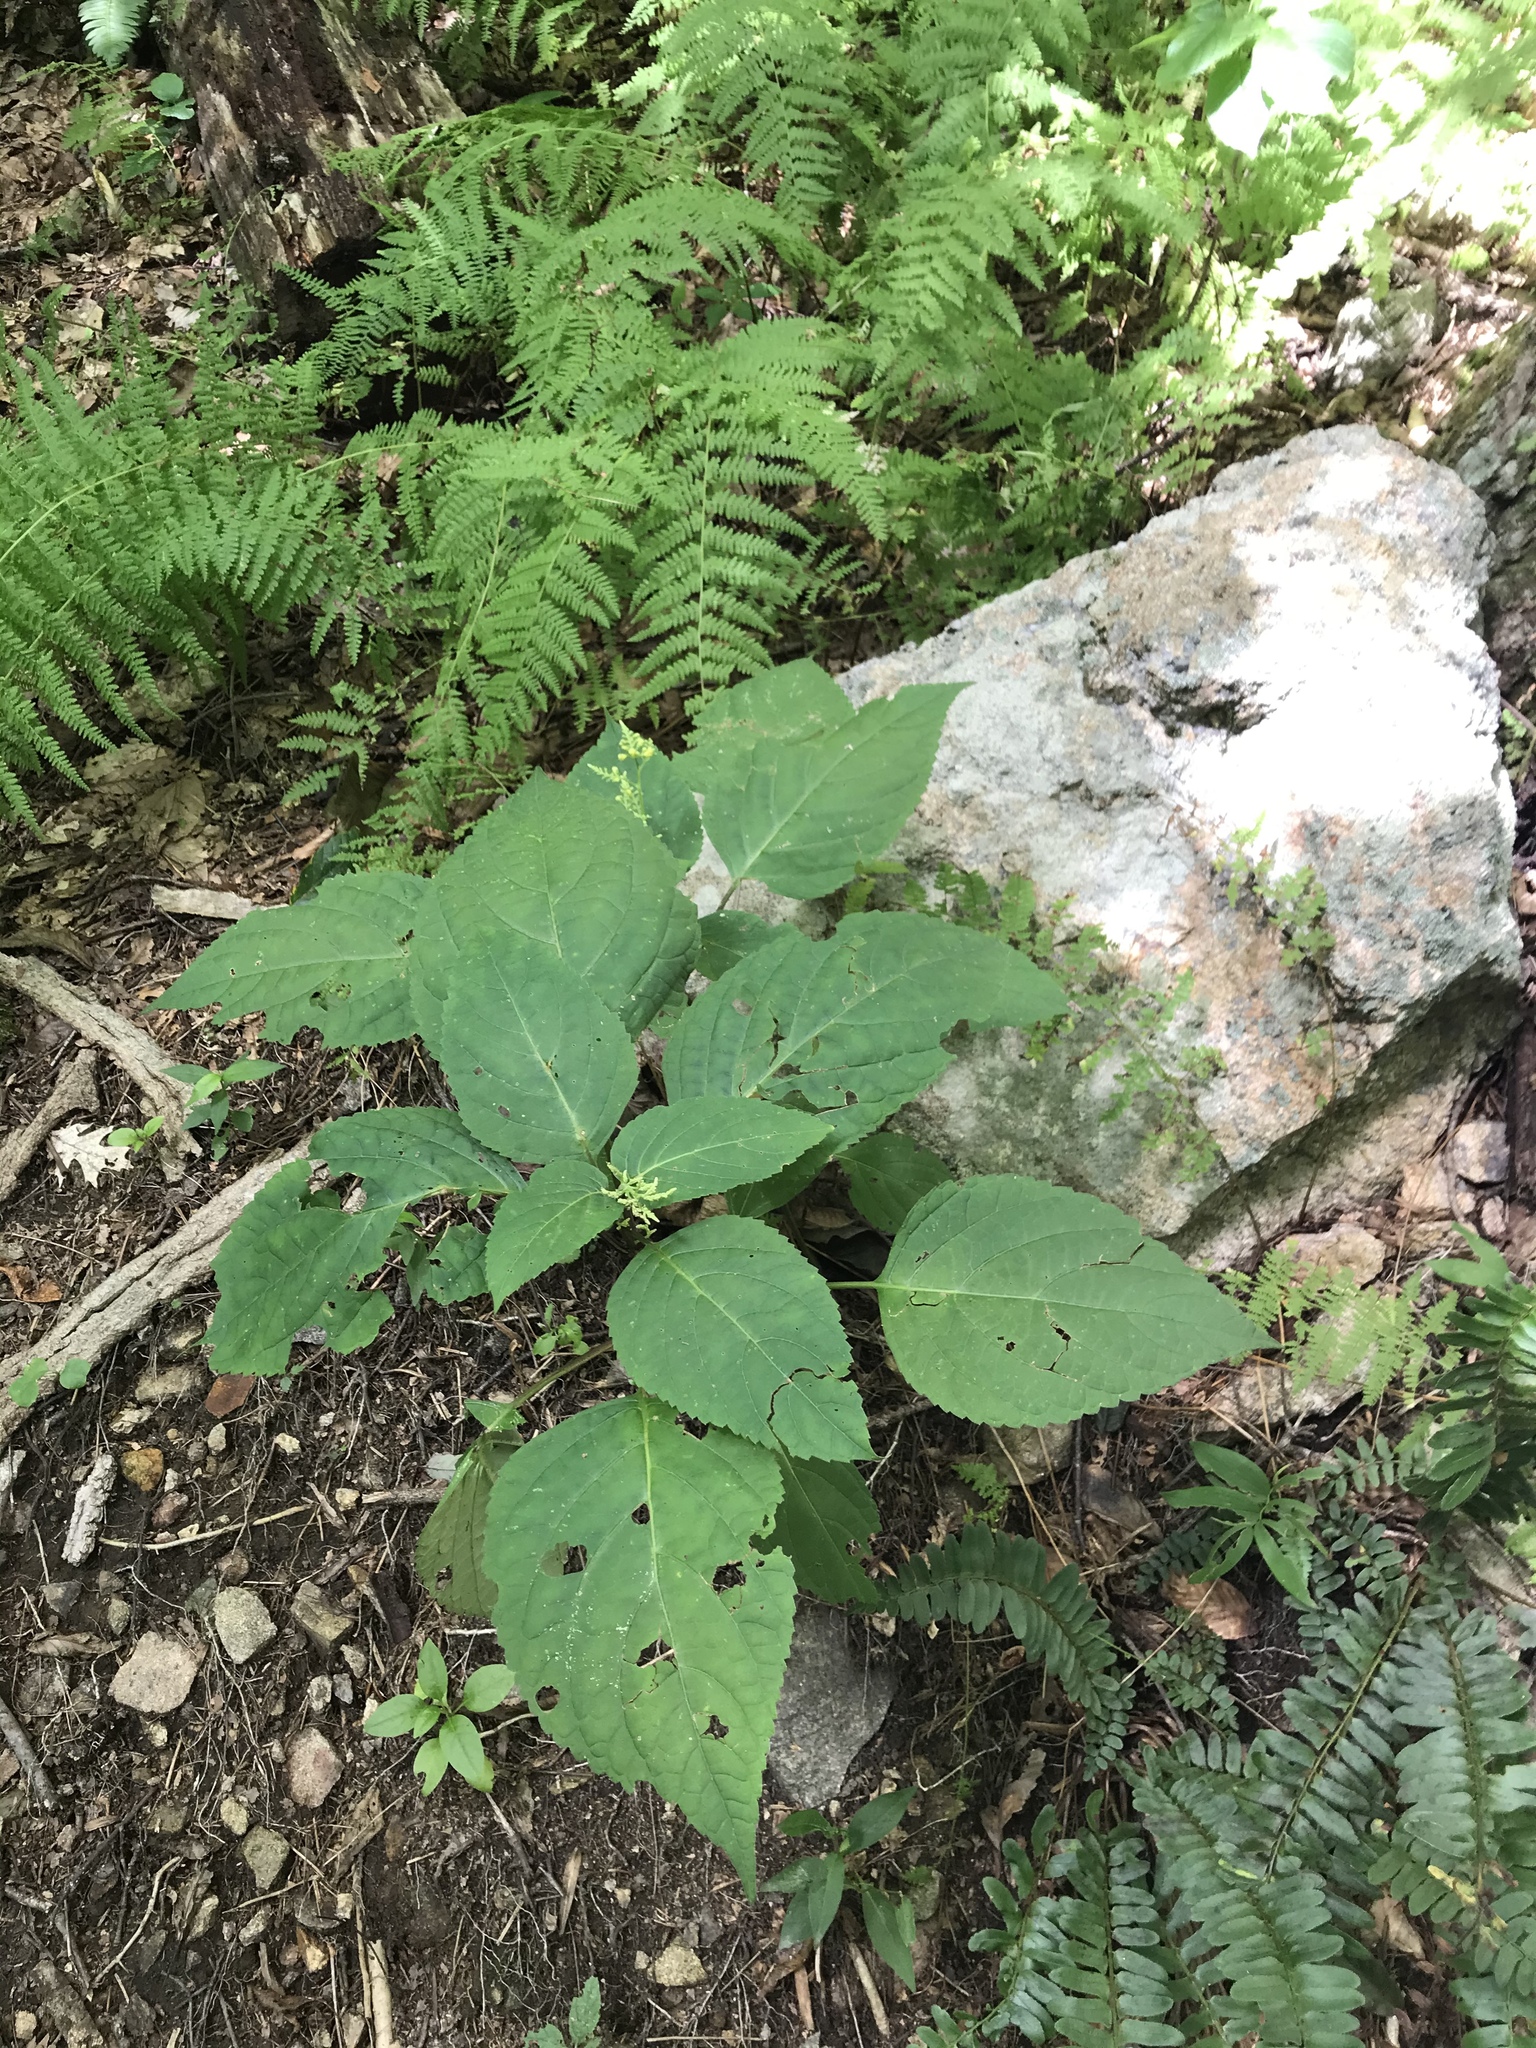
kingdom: Plantae
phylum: Tracheophyta
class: Magnoliopsida
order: Lamiales
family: Lamiaceae
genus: Collinsonia
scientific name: Collinsonia canadensis
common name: Northern horsebalm
